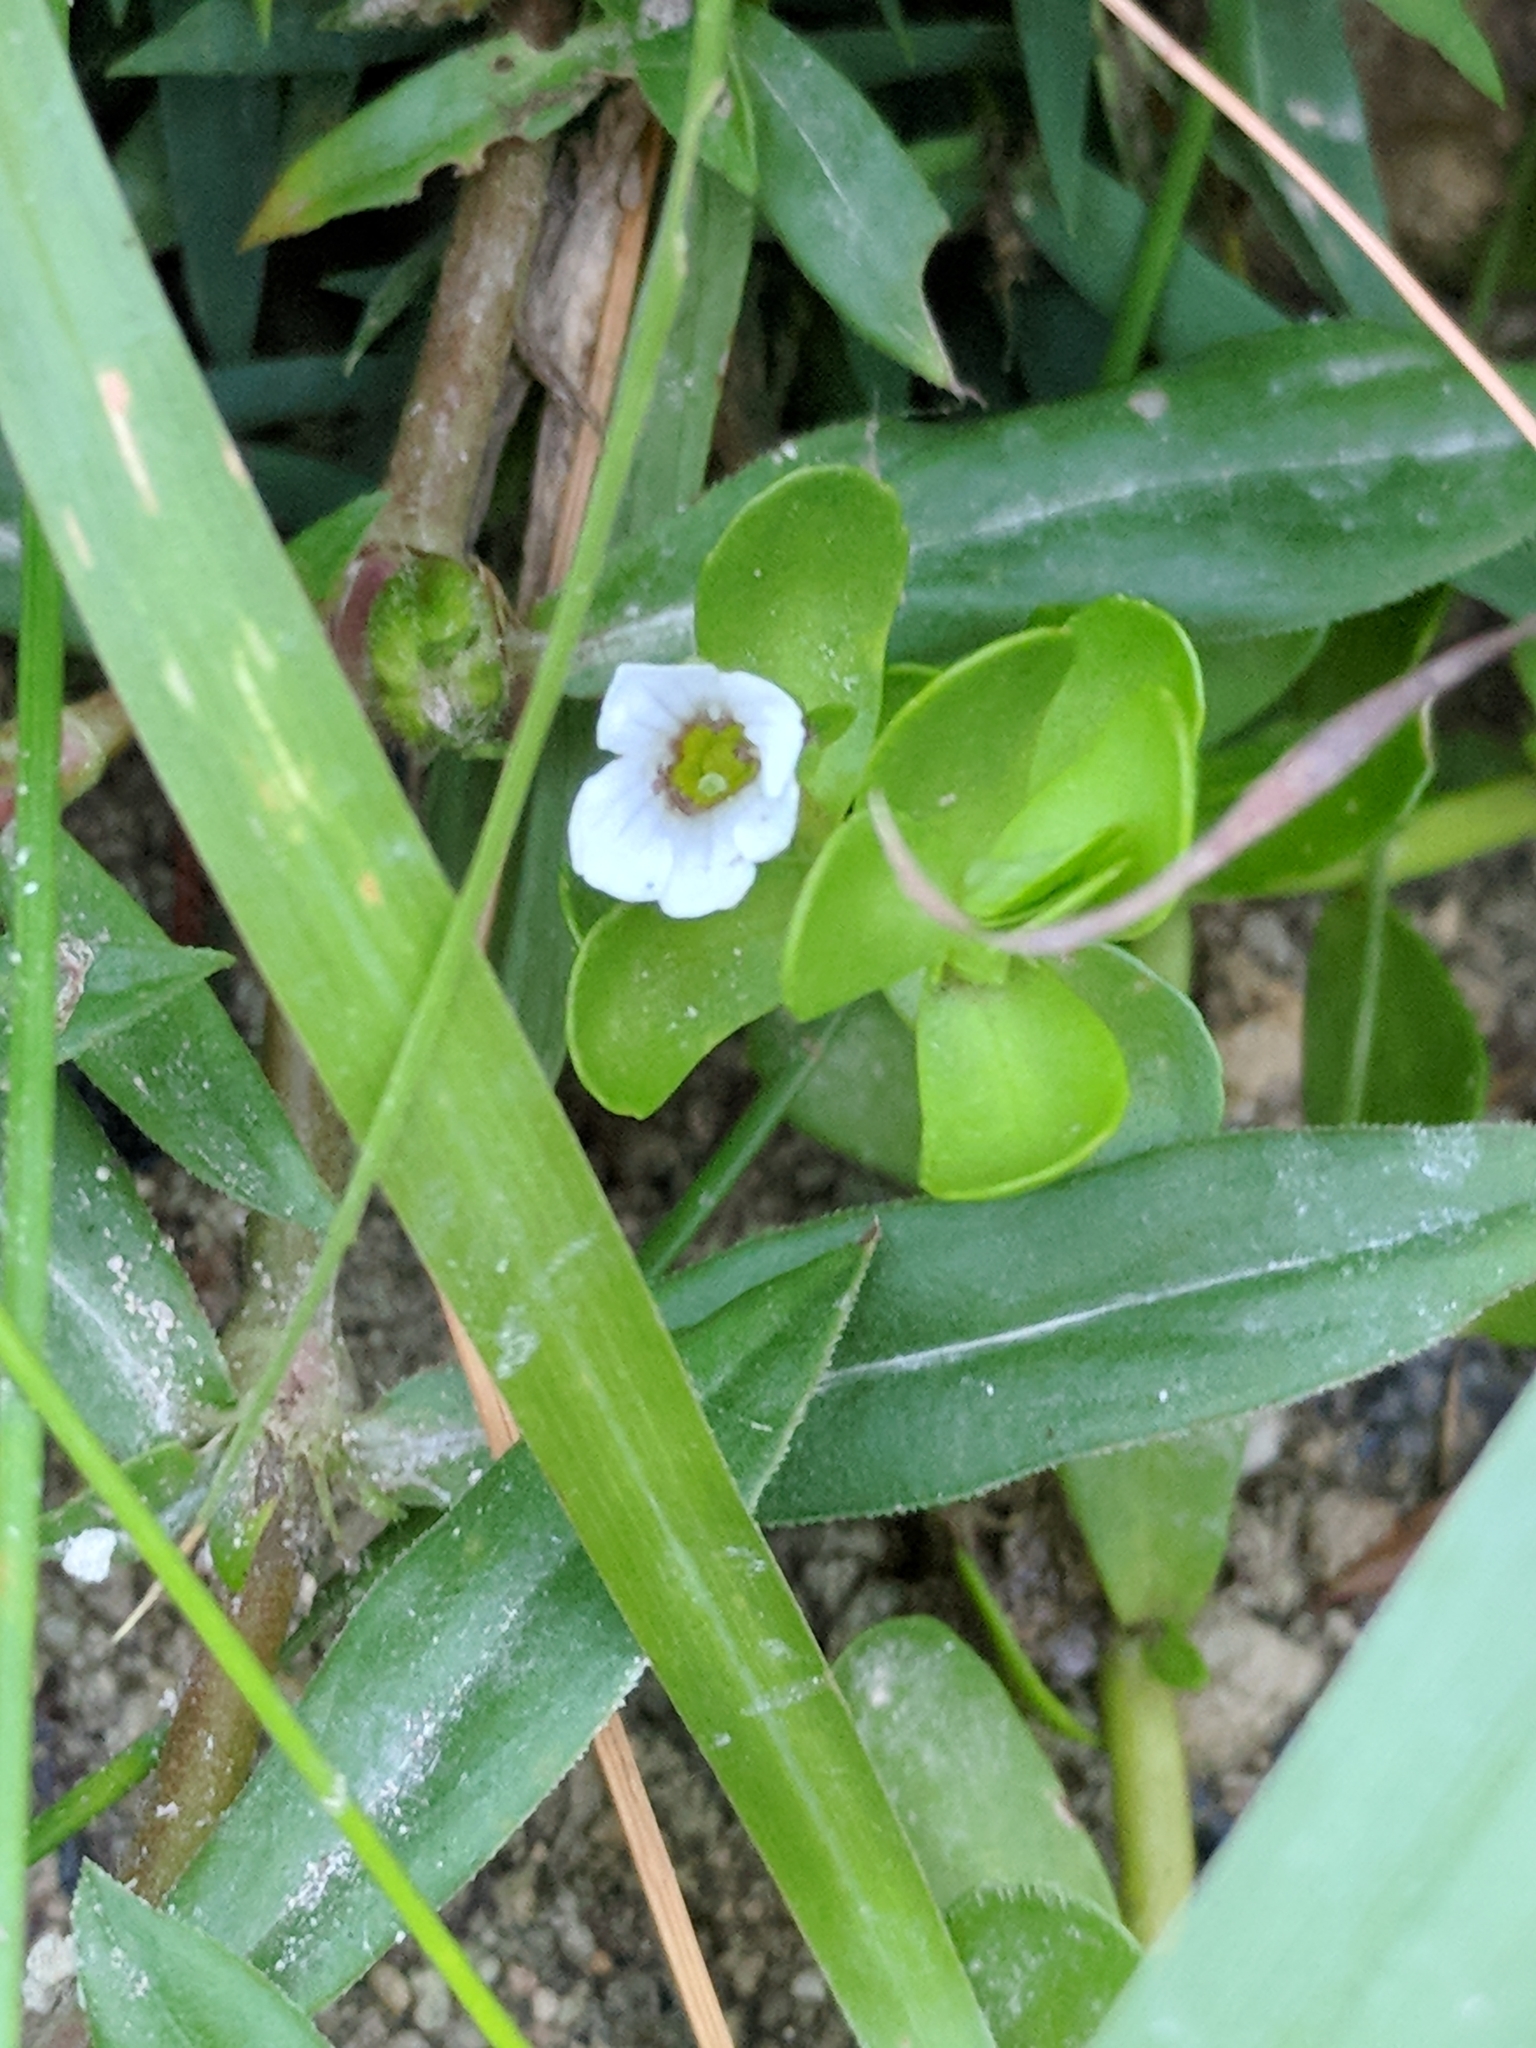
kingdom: Plantae
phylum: Tracheophyta
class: Magnoliopsida
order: Lamiales
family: Plantaginaceae
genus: Bacopa
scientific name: Bacopa monnieri
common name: Indian-pennywort
